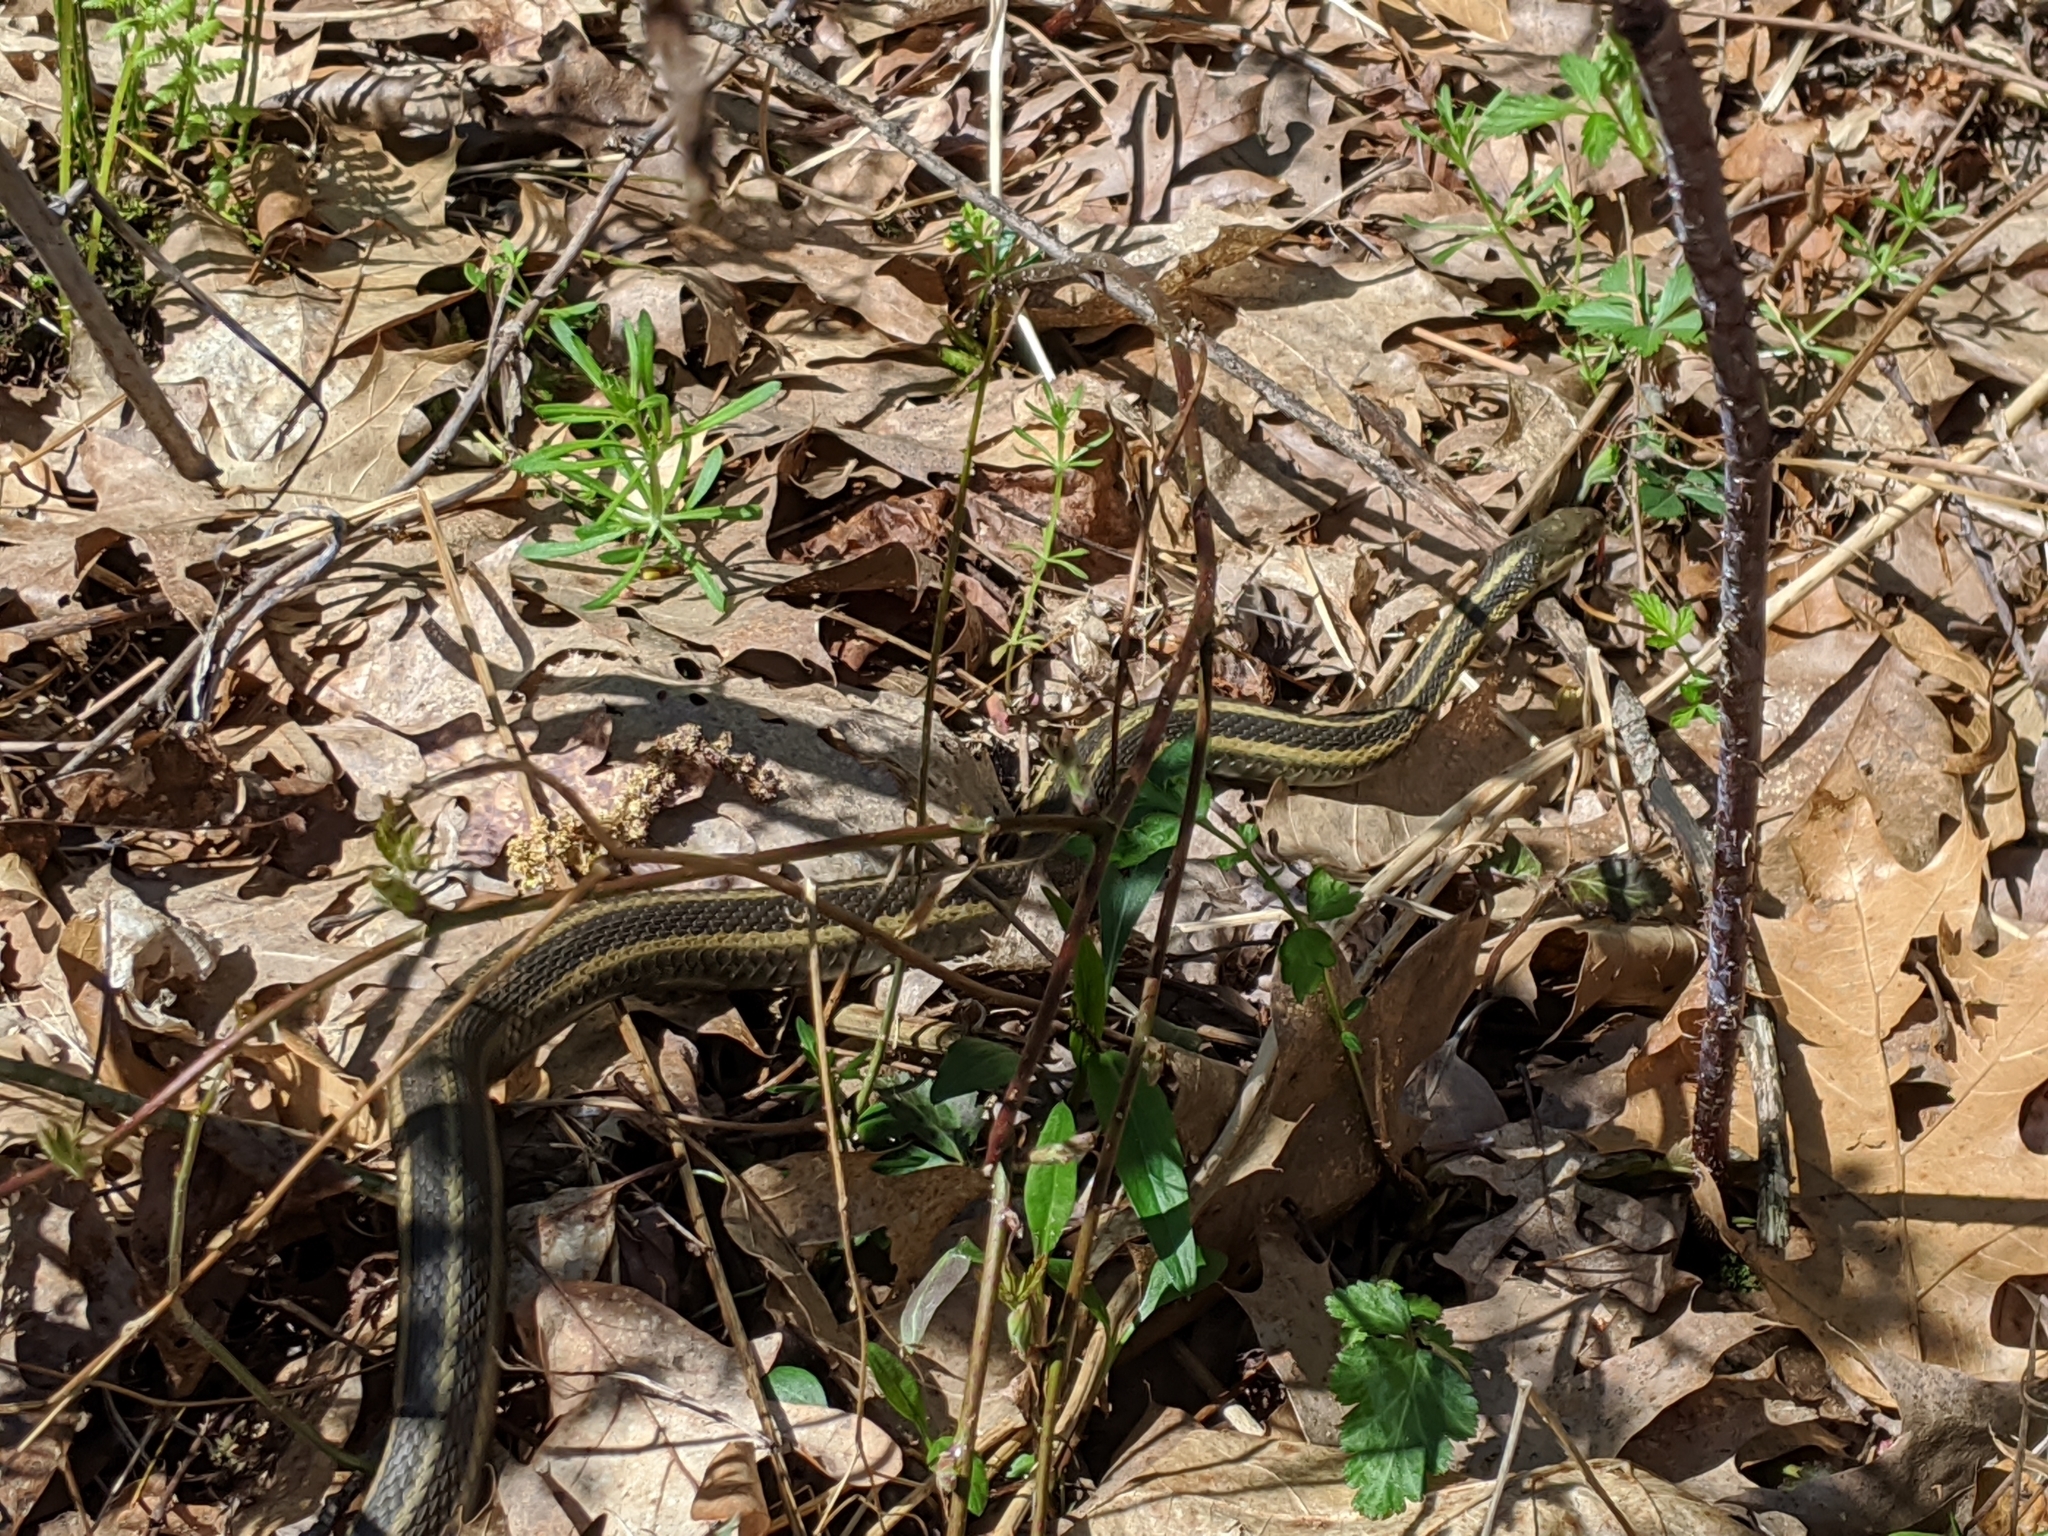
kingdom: Animalia
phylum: Chordata
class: Squamata
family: Colubridae
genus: Thamnophis
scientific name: Thamnophis sirtalis
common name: Common garter snake
